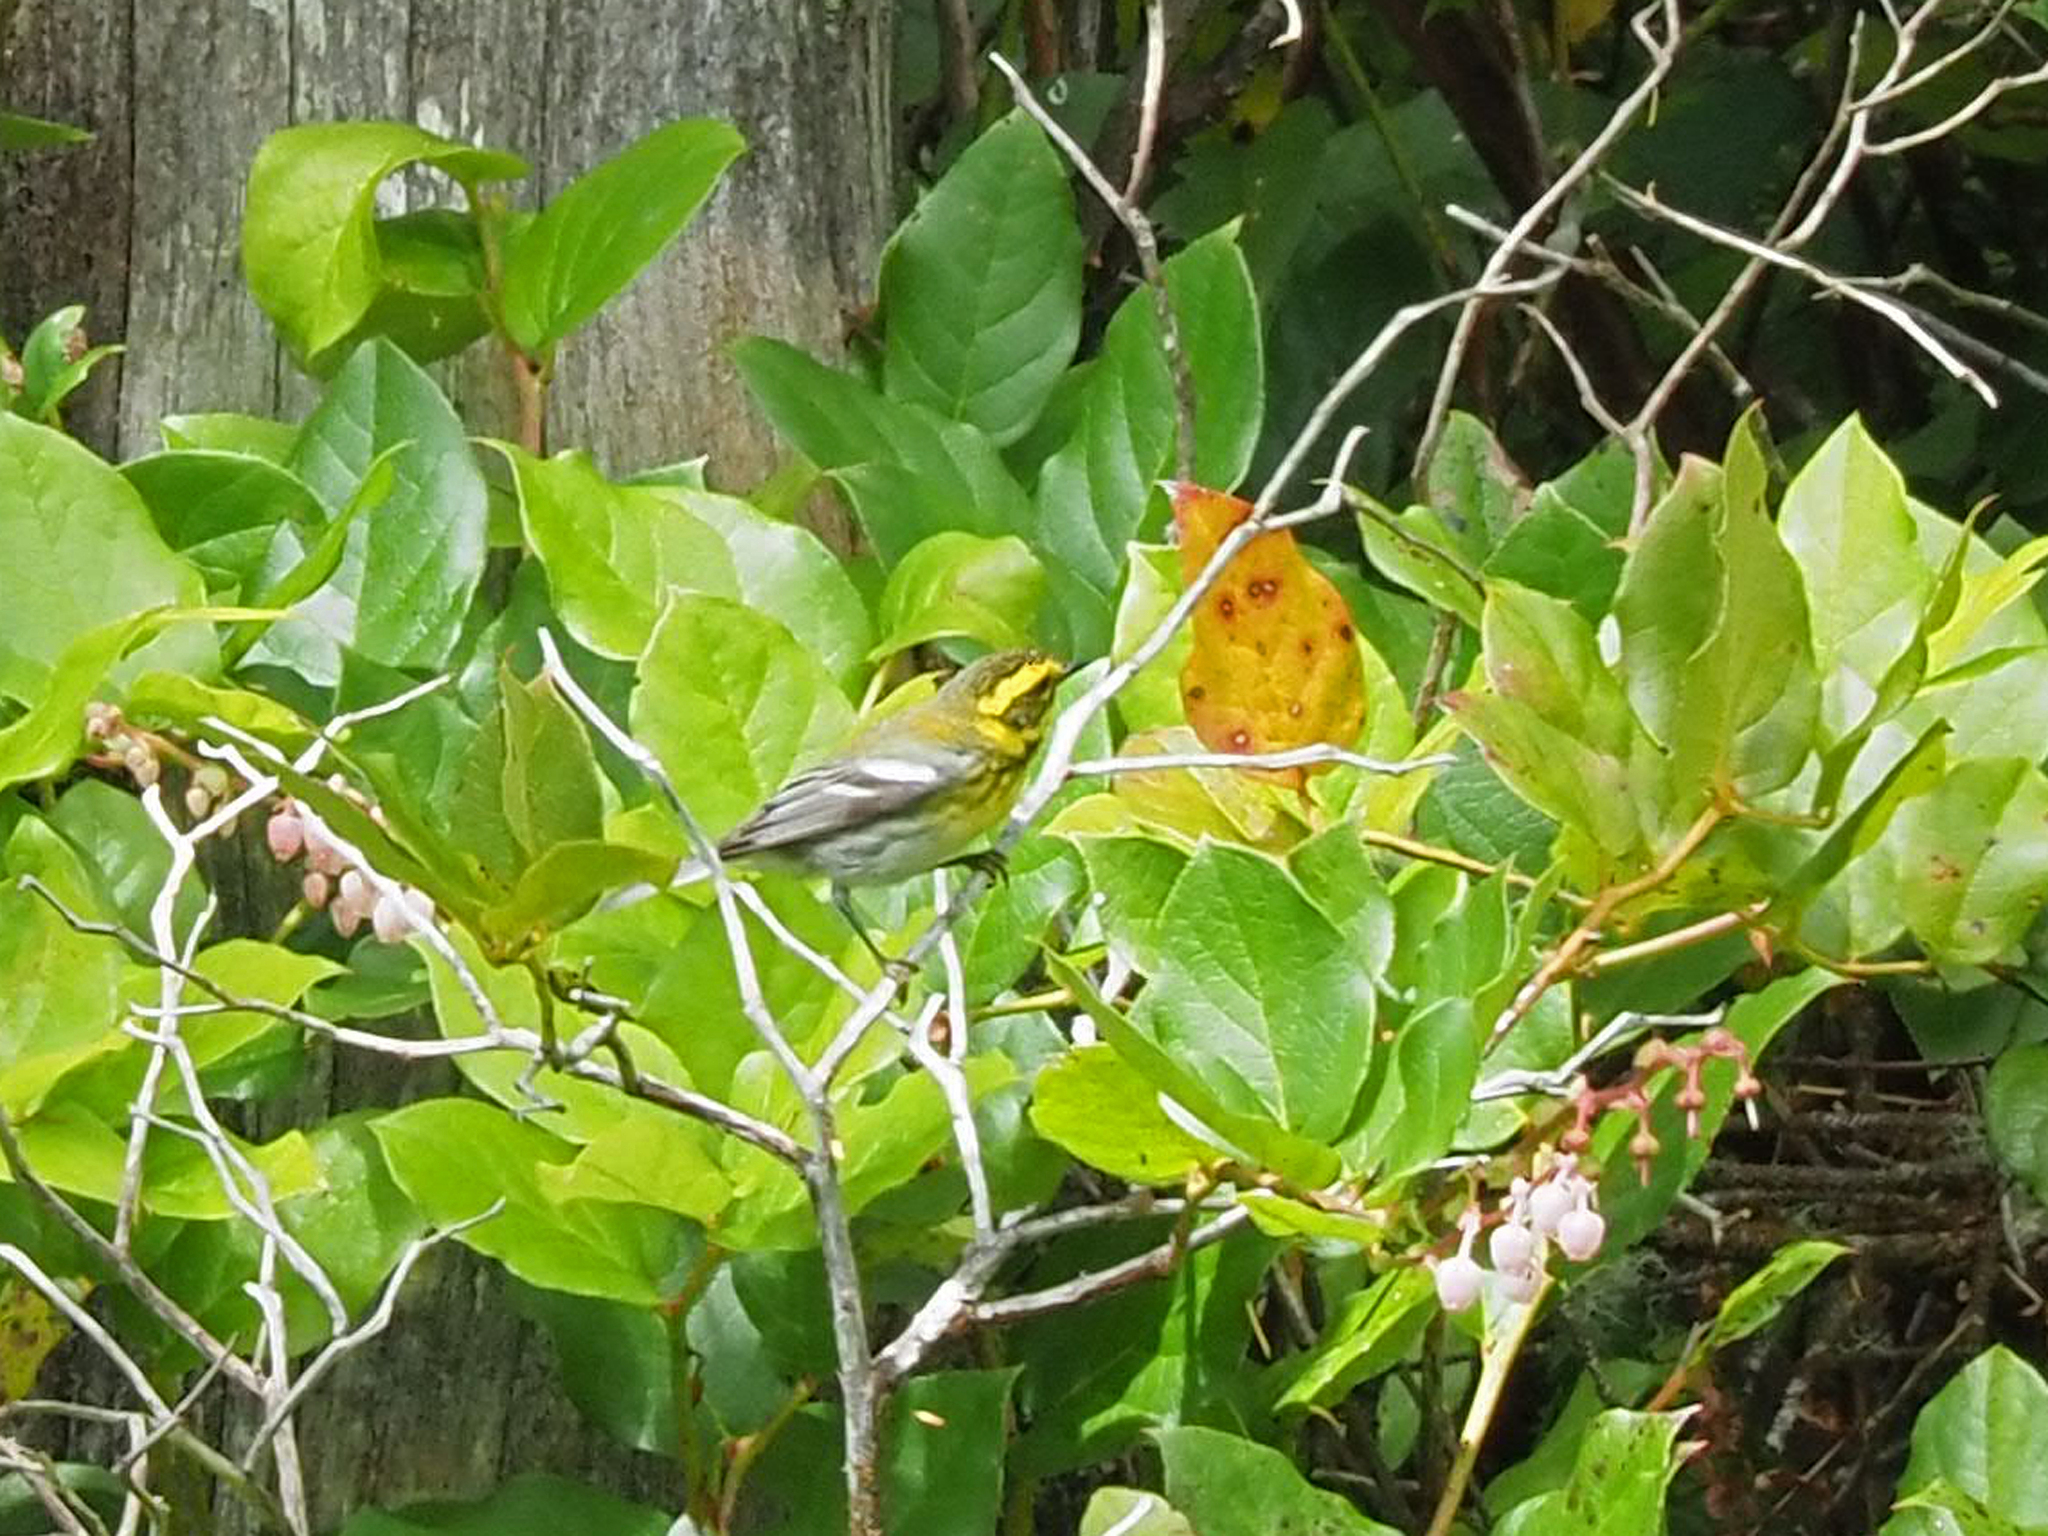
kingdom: Animalia
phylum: Chordata
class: Aves
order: Passeriformes
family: Parulidae
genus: Setophaga
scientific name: Setophaga townsendi
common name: Townsend's warbler
